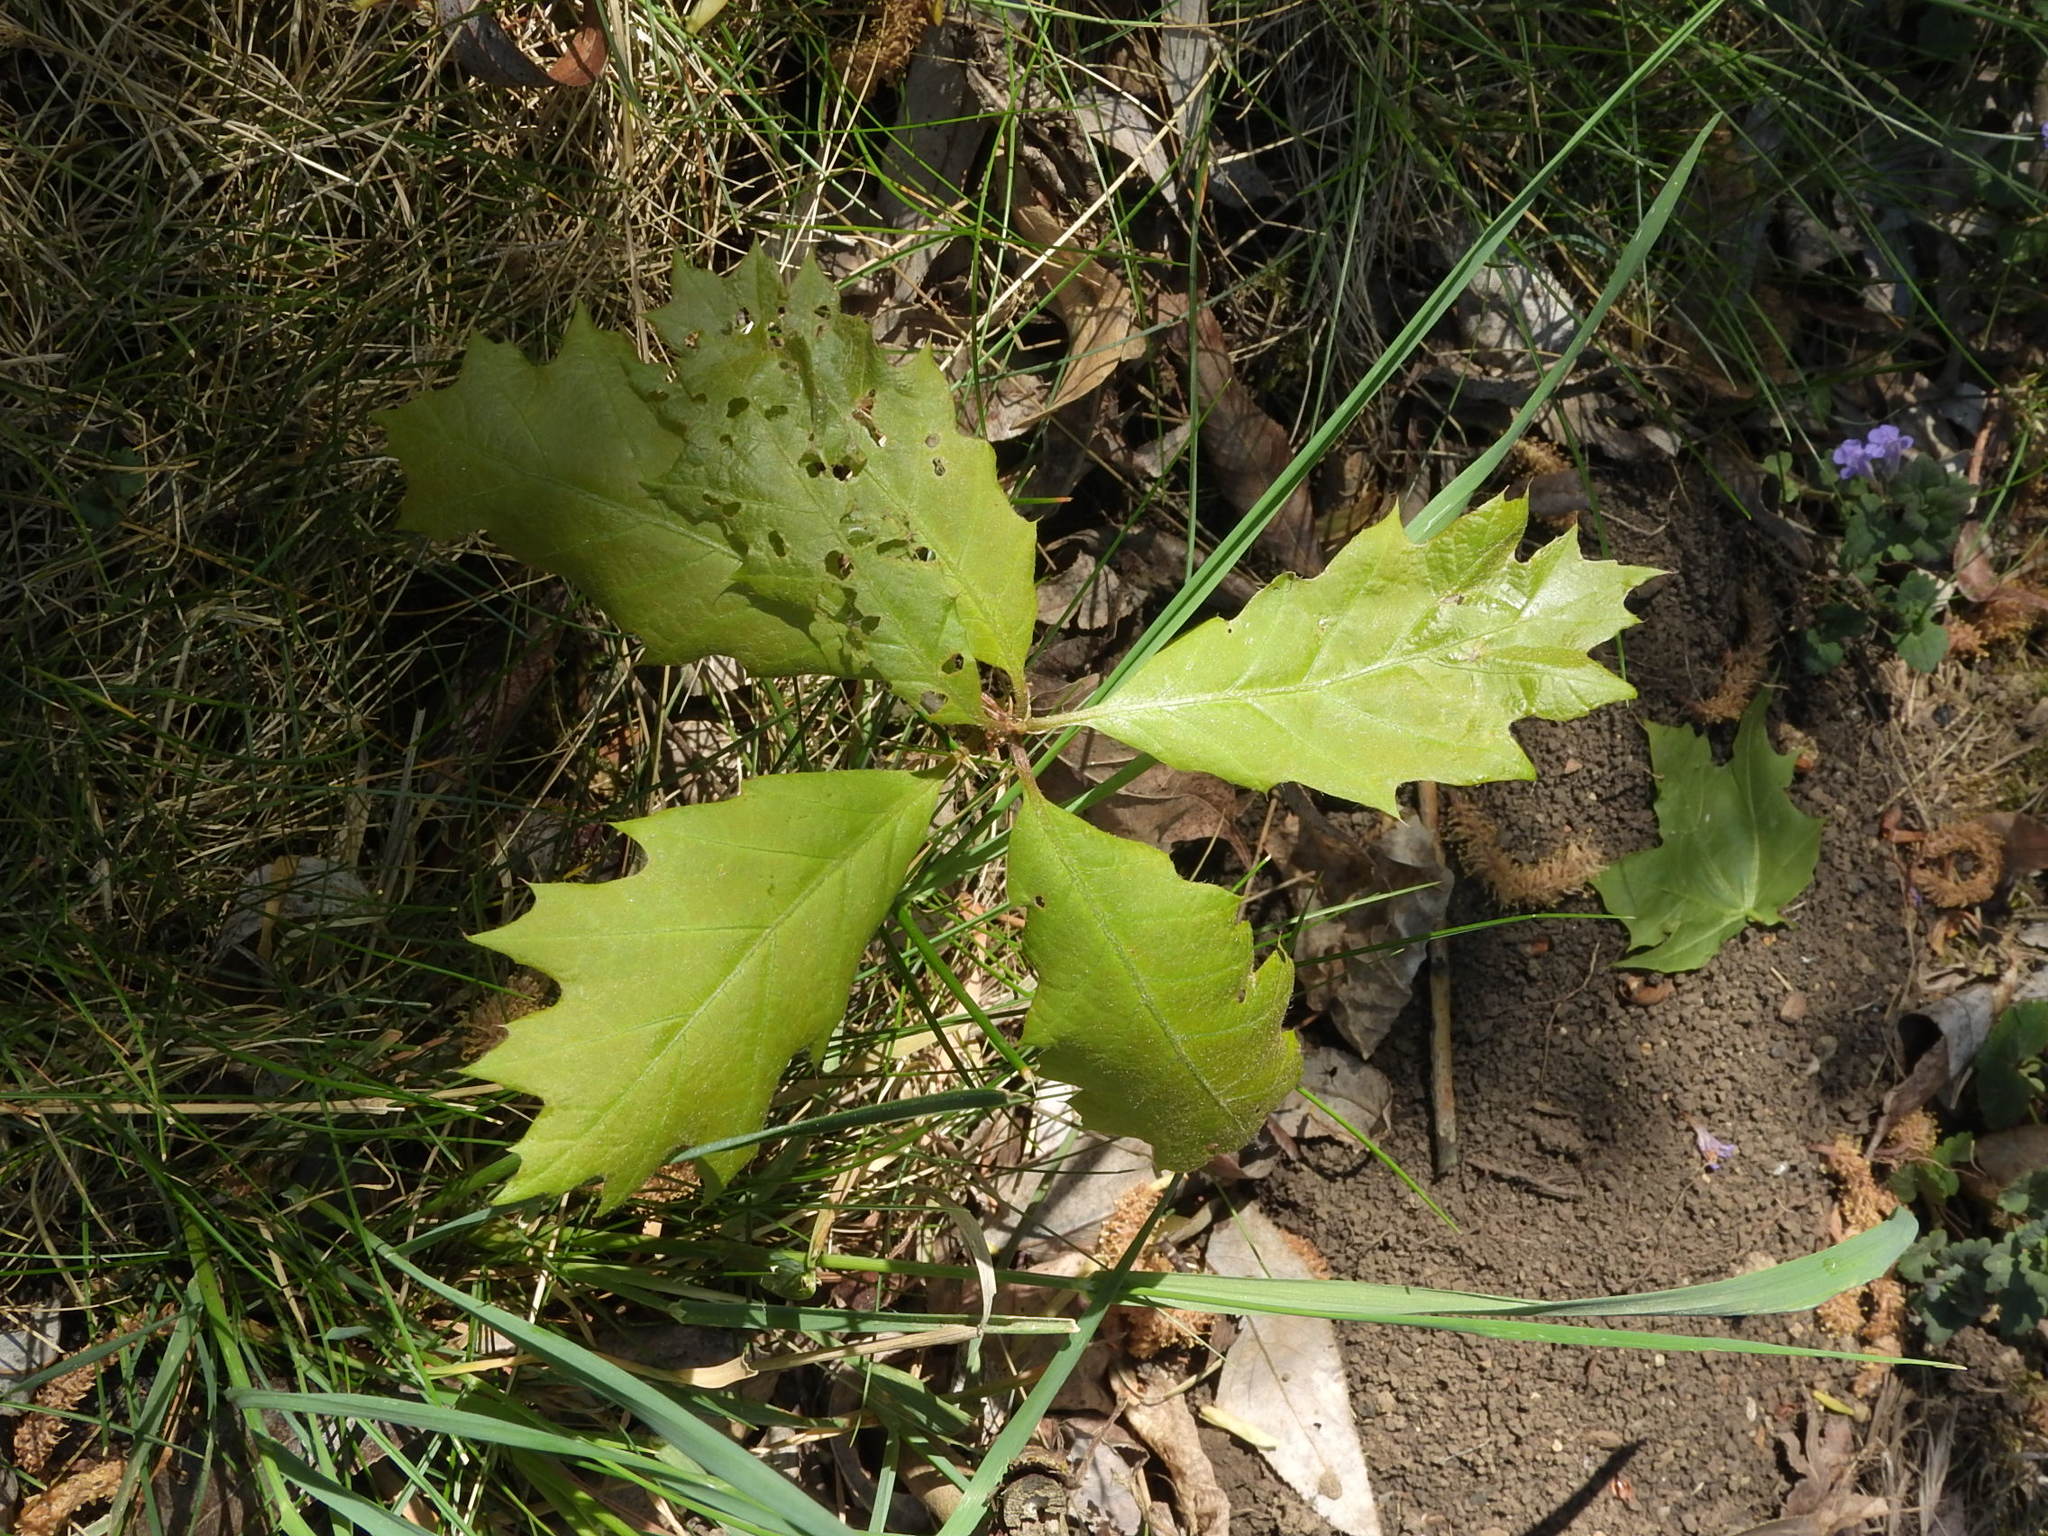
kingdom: Plantae
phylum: Tracheophyta
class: Magnoliopsida
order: Fagales
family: Fagaceae
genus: Quercus
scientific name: Quercus rubra
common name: Red oak
